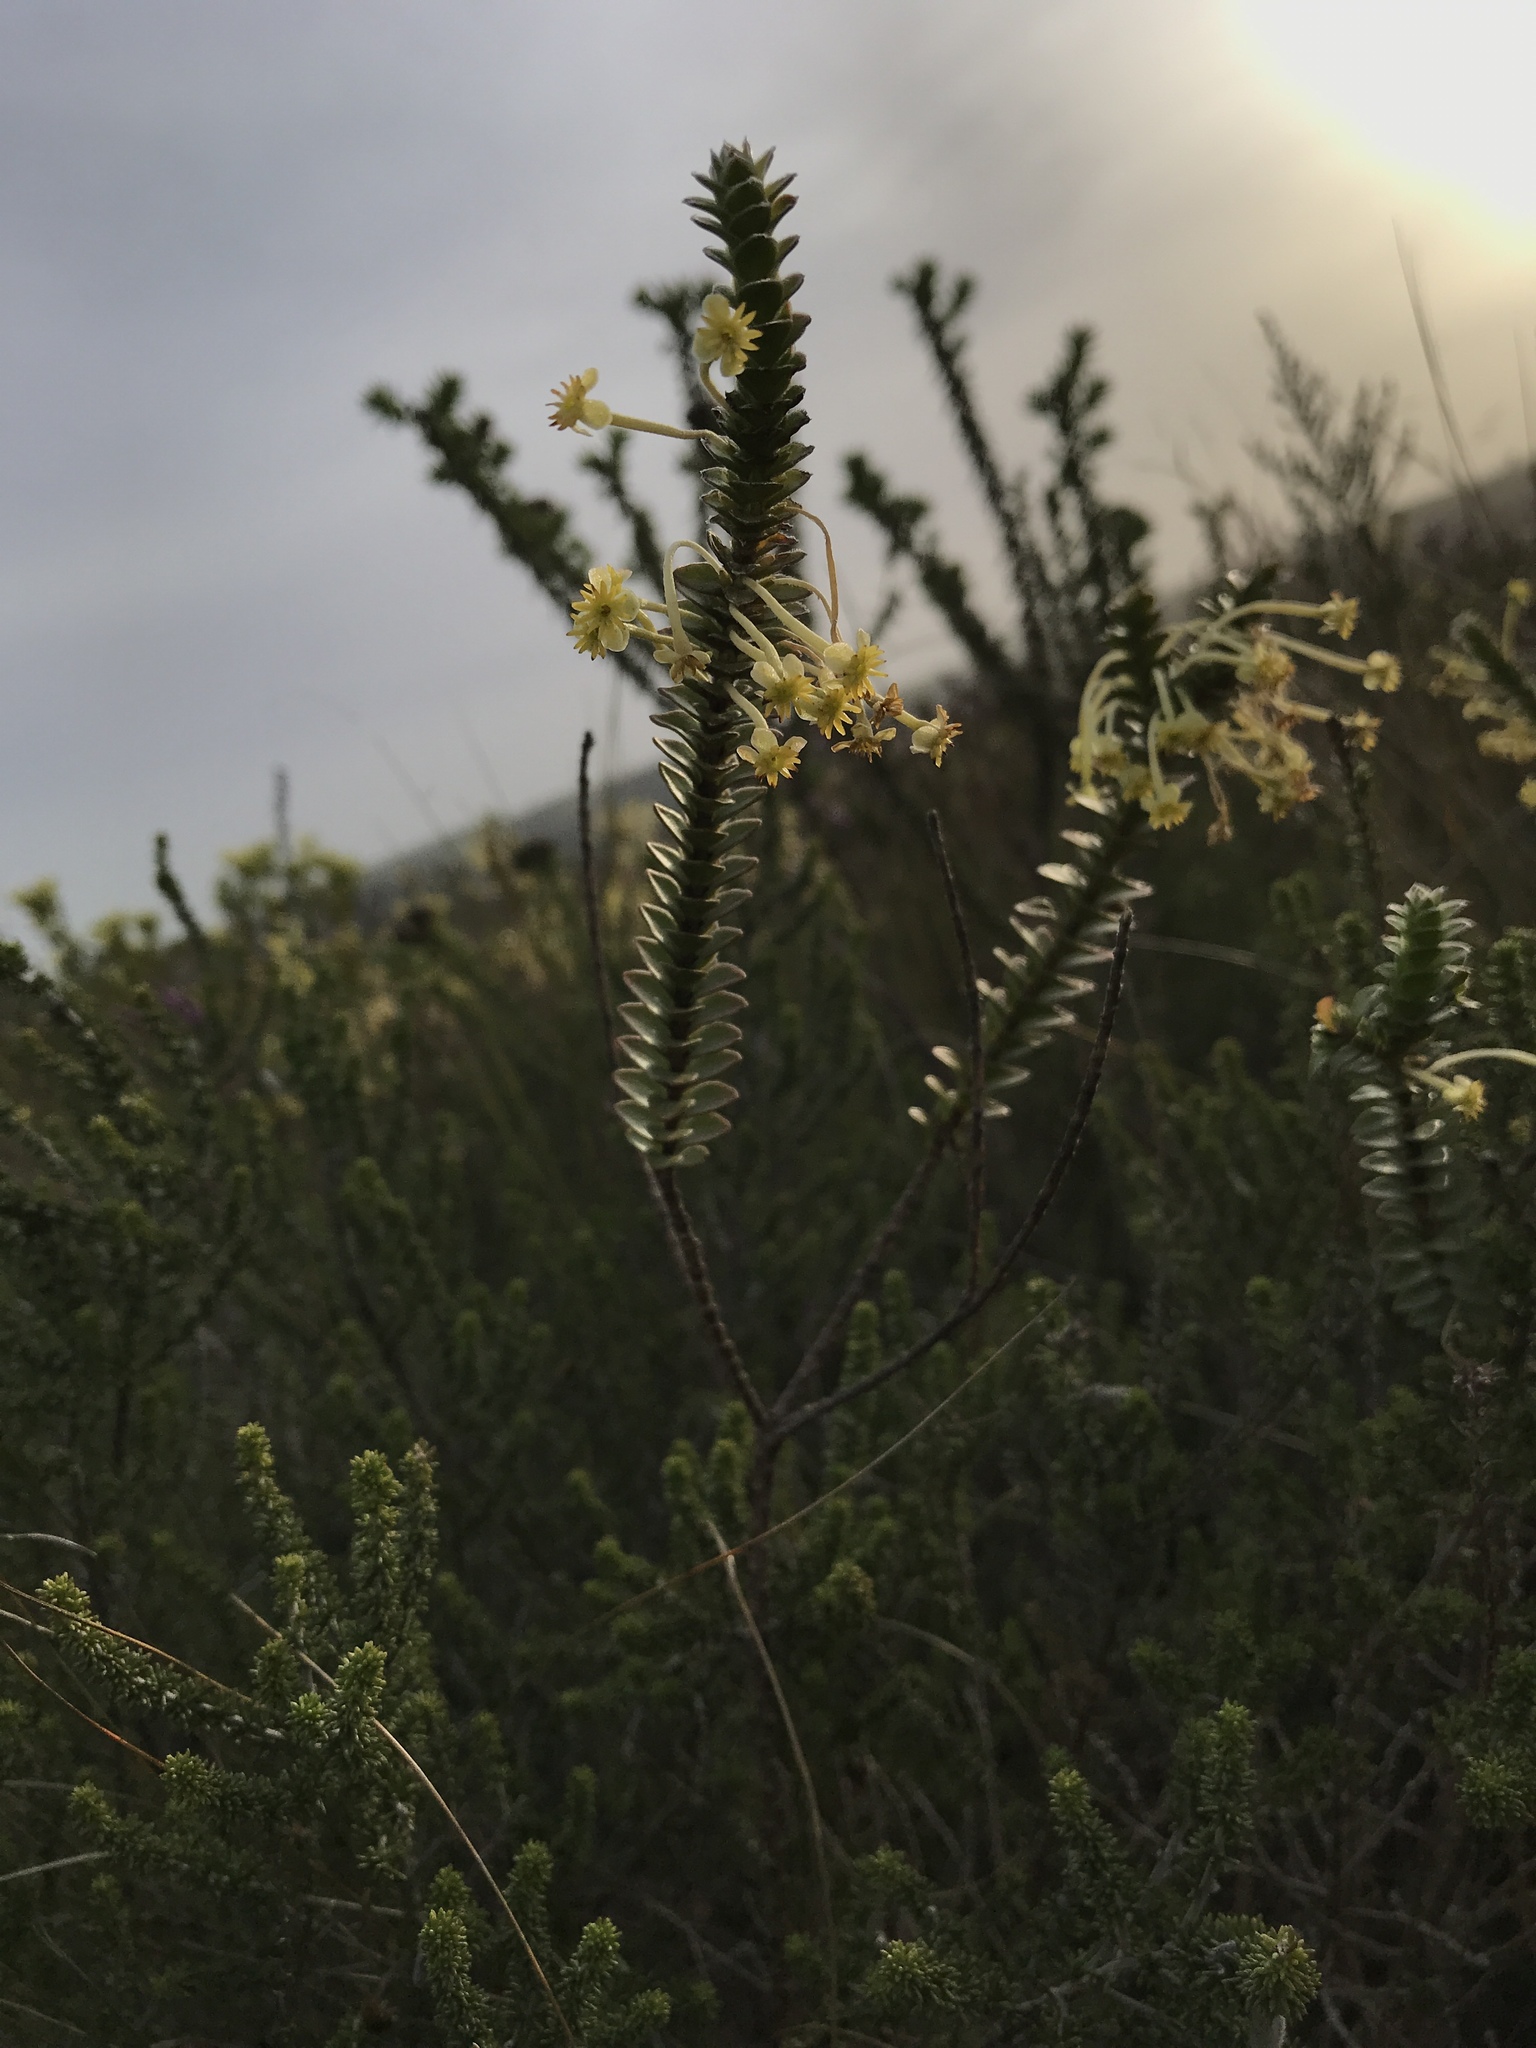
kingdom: Plantae
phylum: Tracheophyta
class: Magnoliopsida
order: Malvales
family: Thymelaeaceae
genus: Struthiola
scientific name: Struthiola argentea
